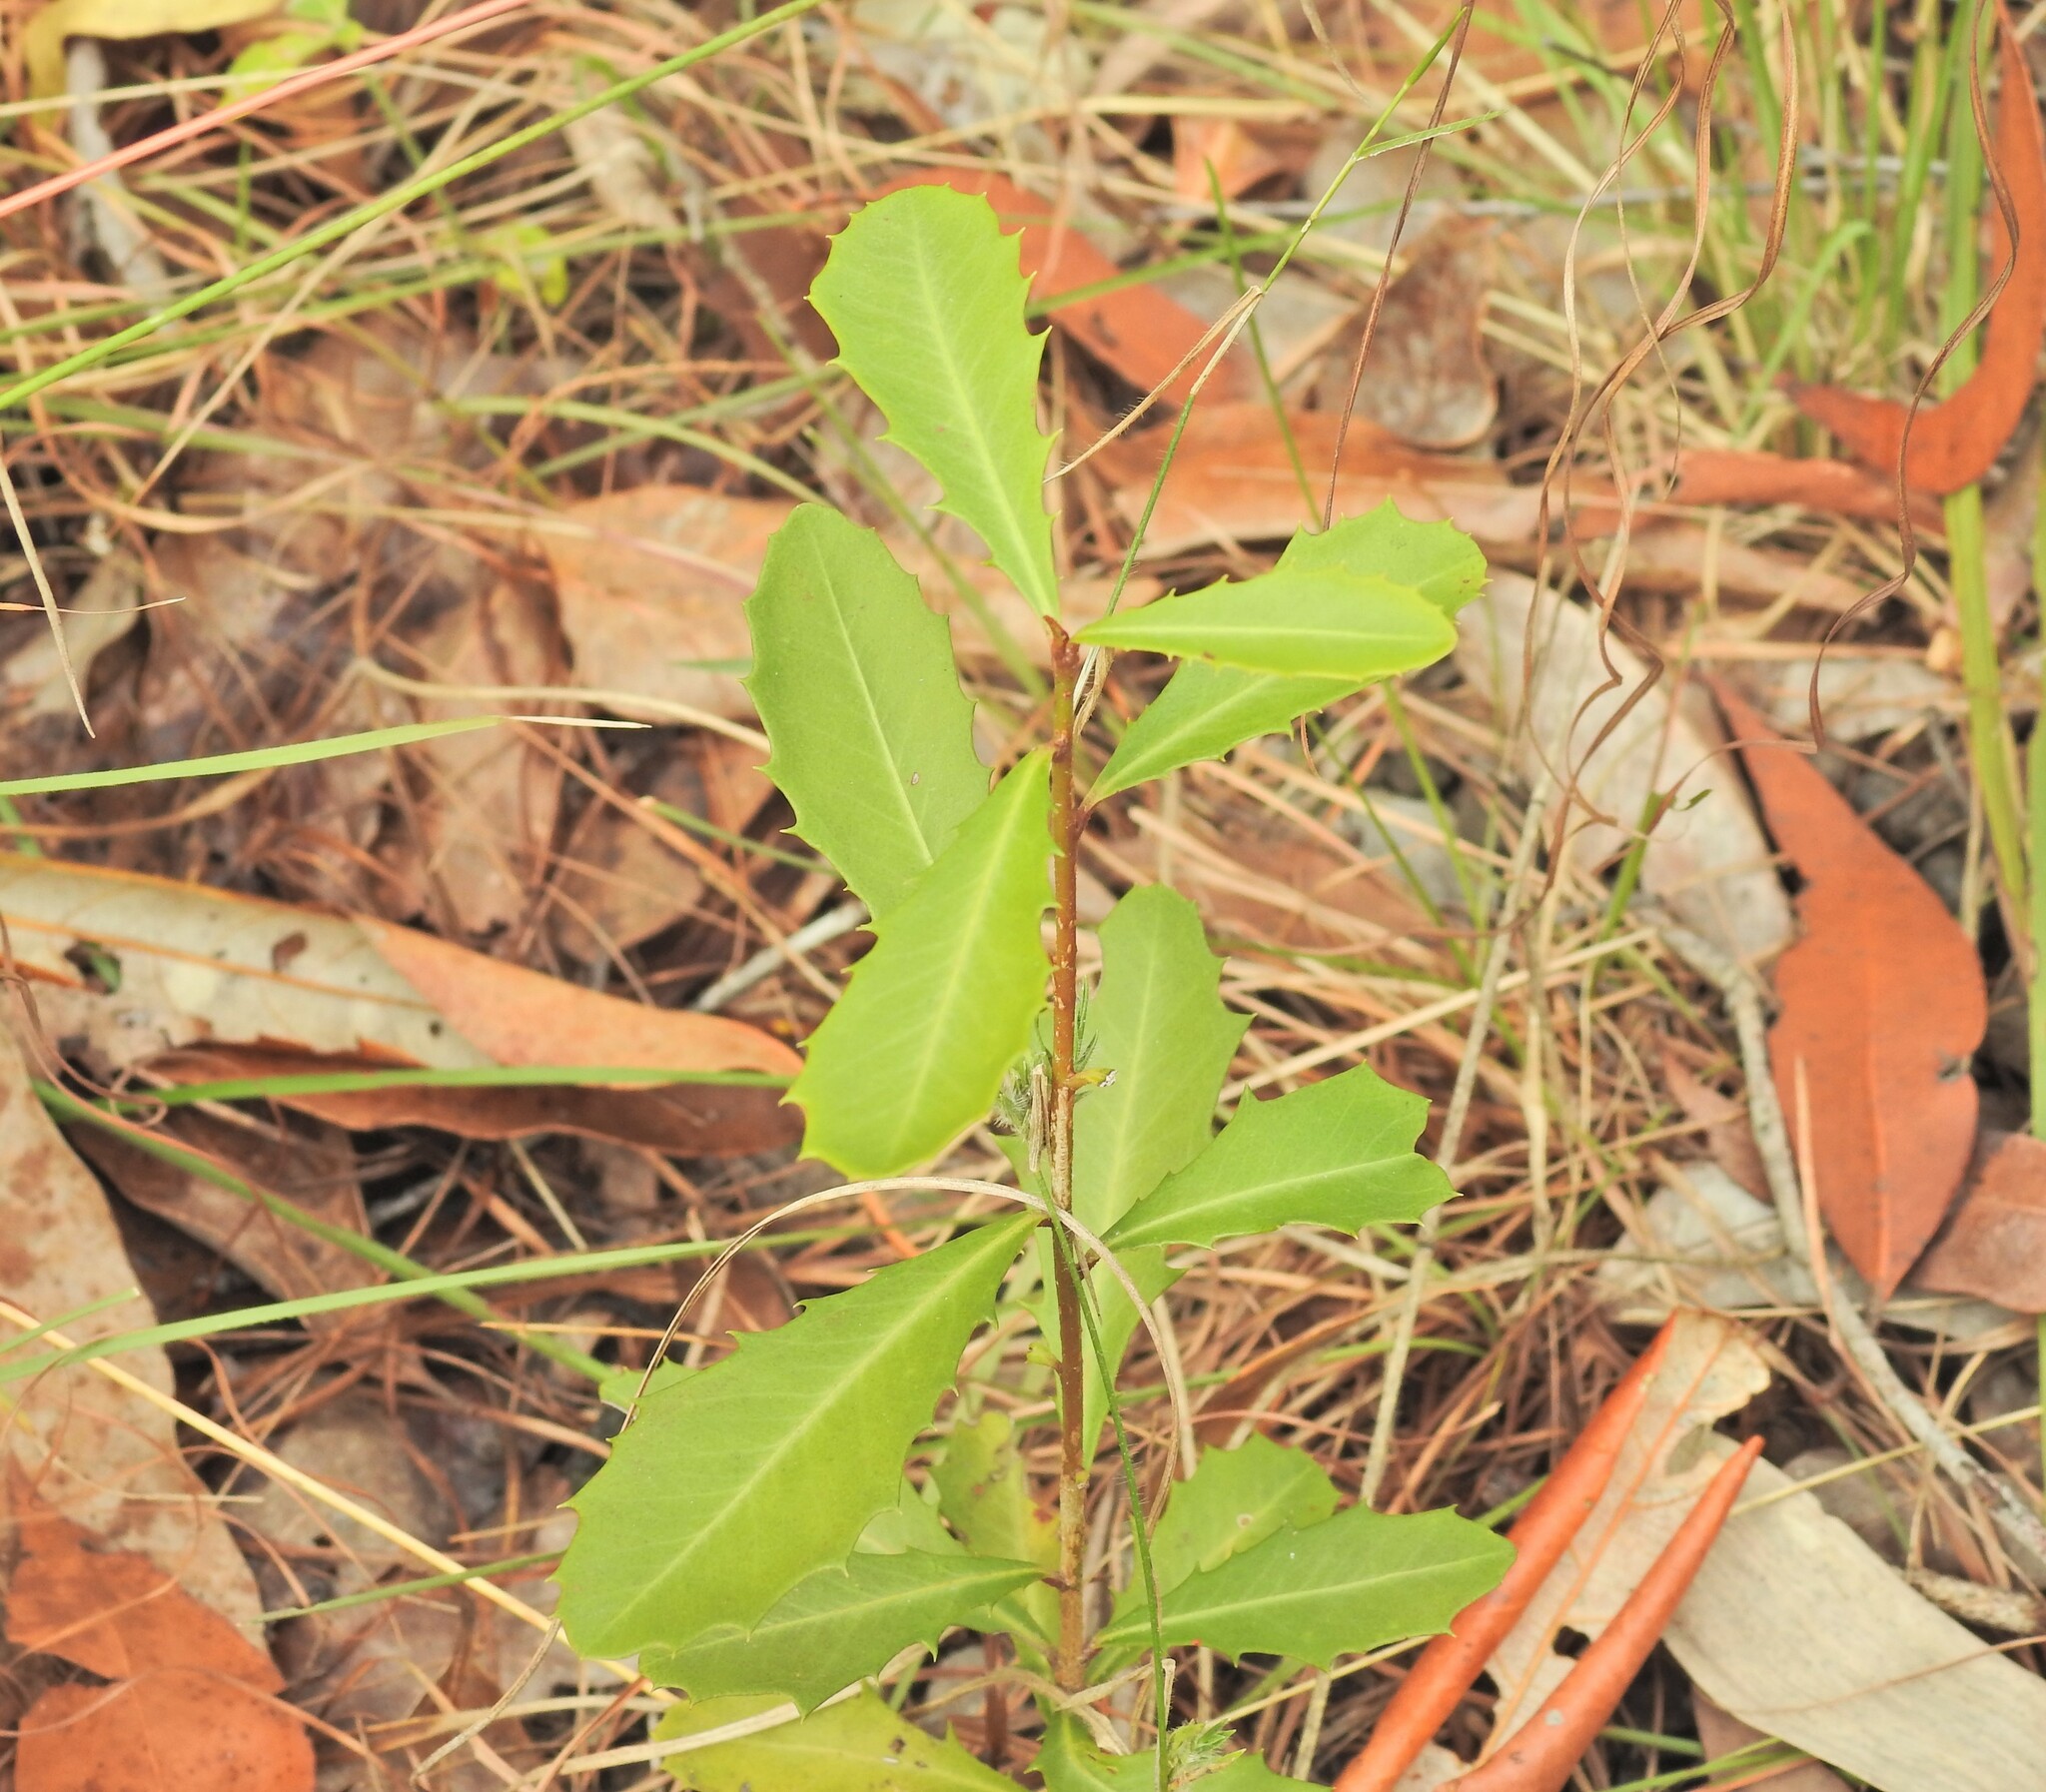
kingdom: Plantae
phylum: Tracheophyta
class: Magnoliopsida
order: Ericales
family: Primulaceae
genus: Myrsine
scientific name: Myrsine variabilis
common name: Brush muttonwood
